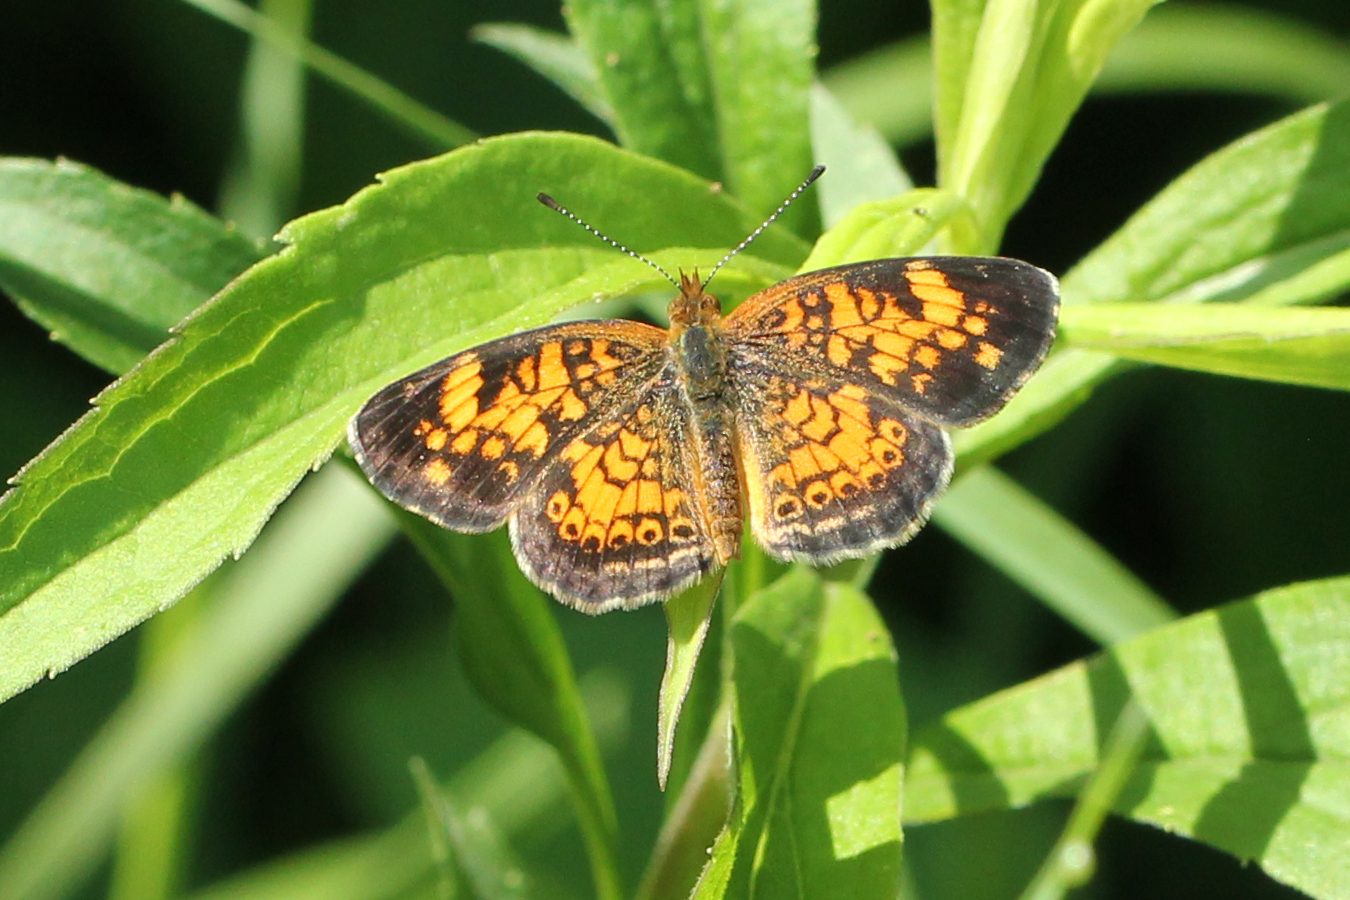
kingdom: Animalia
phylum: Arthropoda
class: Insecta
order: Lepidoptera
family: Nymphalidae
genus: Phyciodes
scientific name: Phyciodes tharos
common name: Pearl crescent
